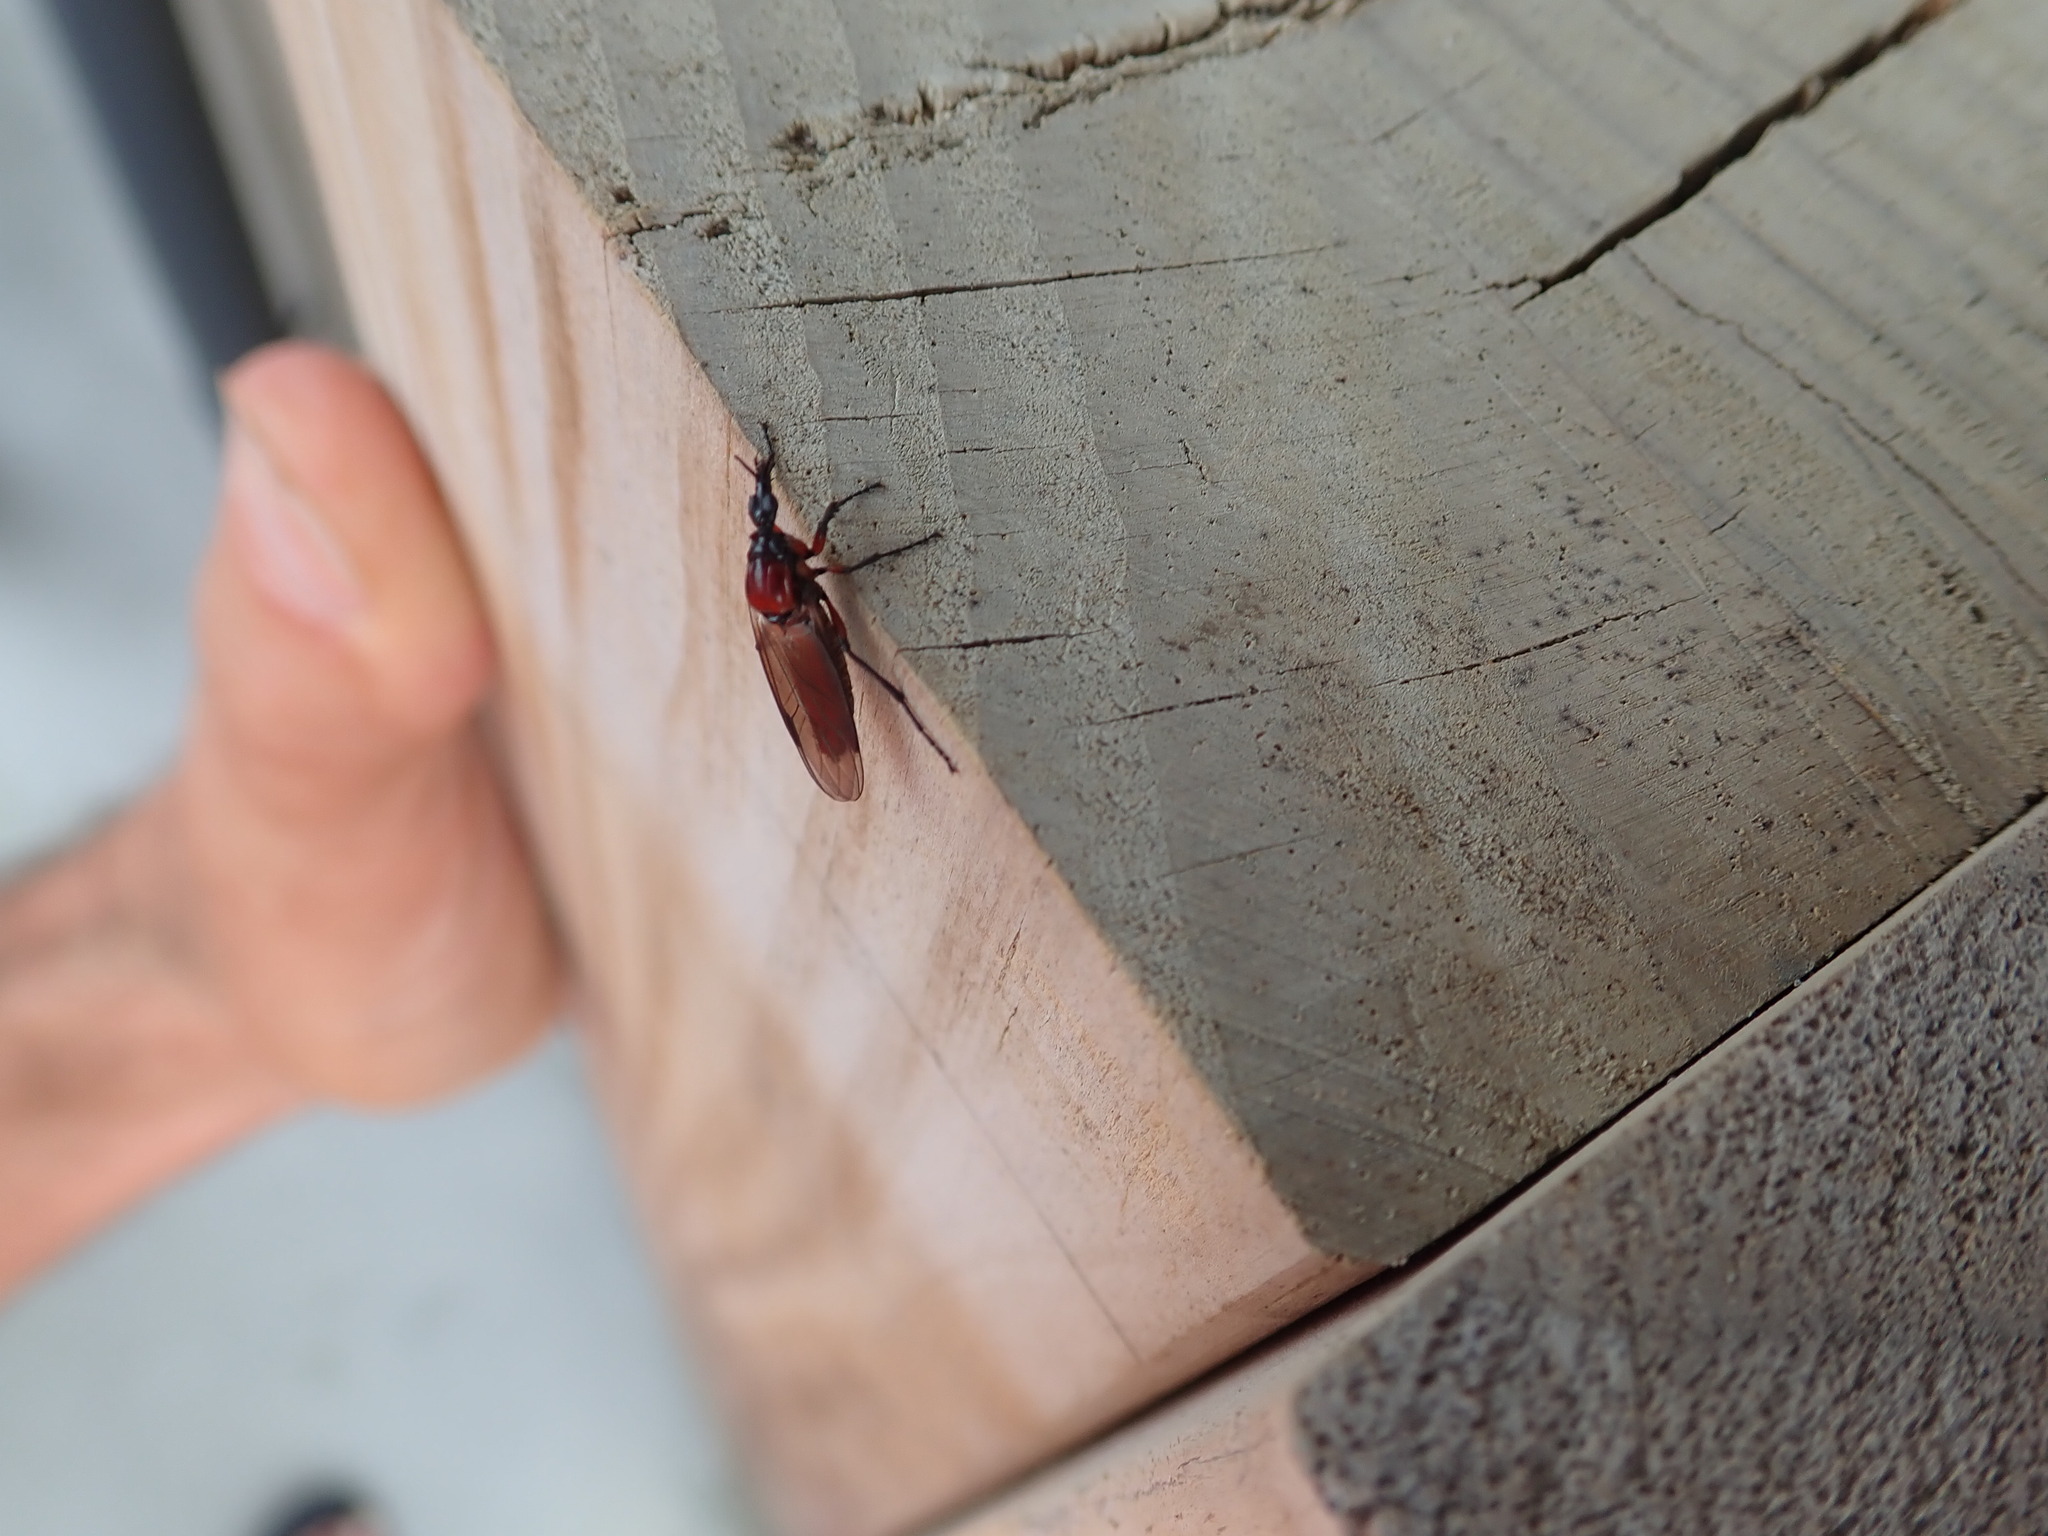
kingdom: Animalia
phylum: Arthropoda
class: Insecta
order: Diptera
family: Bibionidae
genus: Dilophus
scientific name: Dilophus nigrostigma
